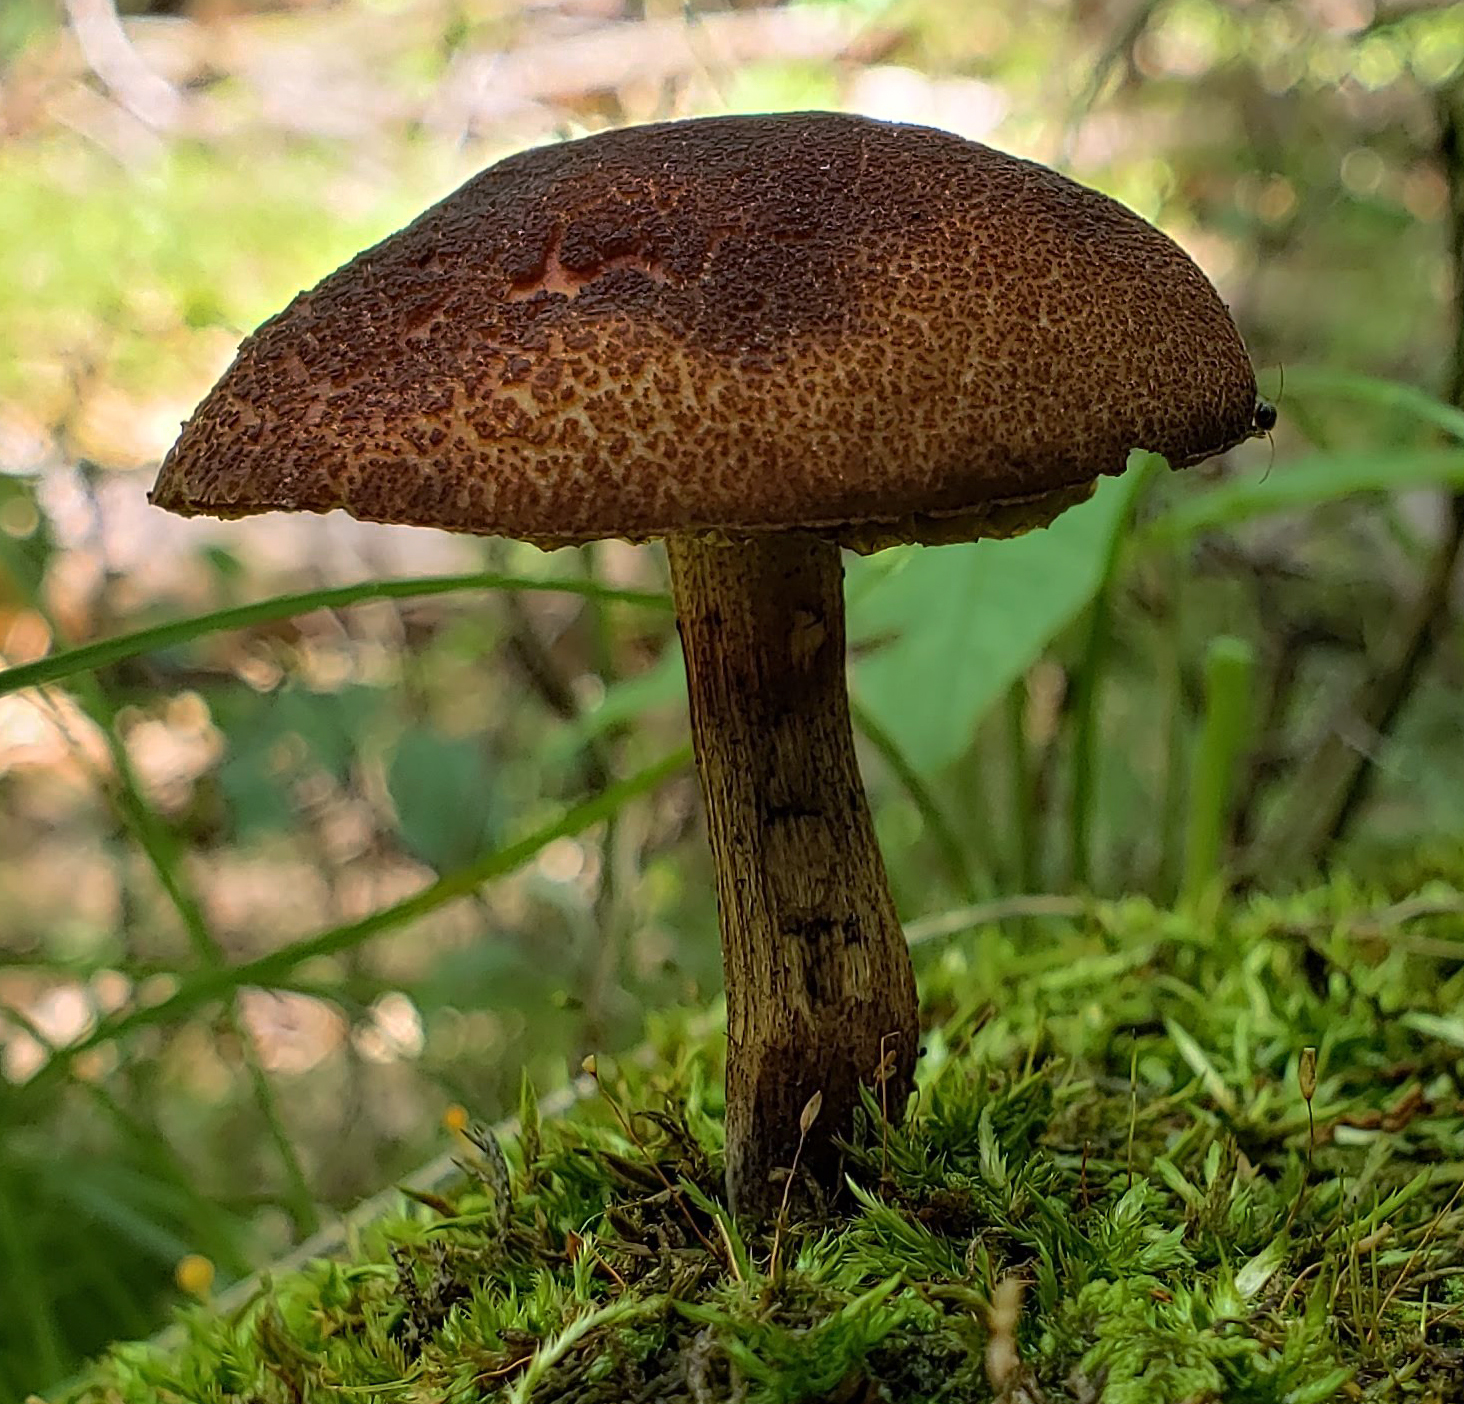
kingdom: Fungi
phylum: Basidiomycota
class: Agaricomycetes
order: Boletales
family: Boletaceae
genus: Boletellus
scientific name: Boletellus chrysenteroides
